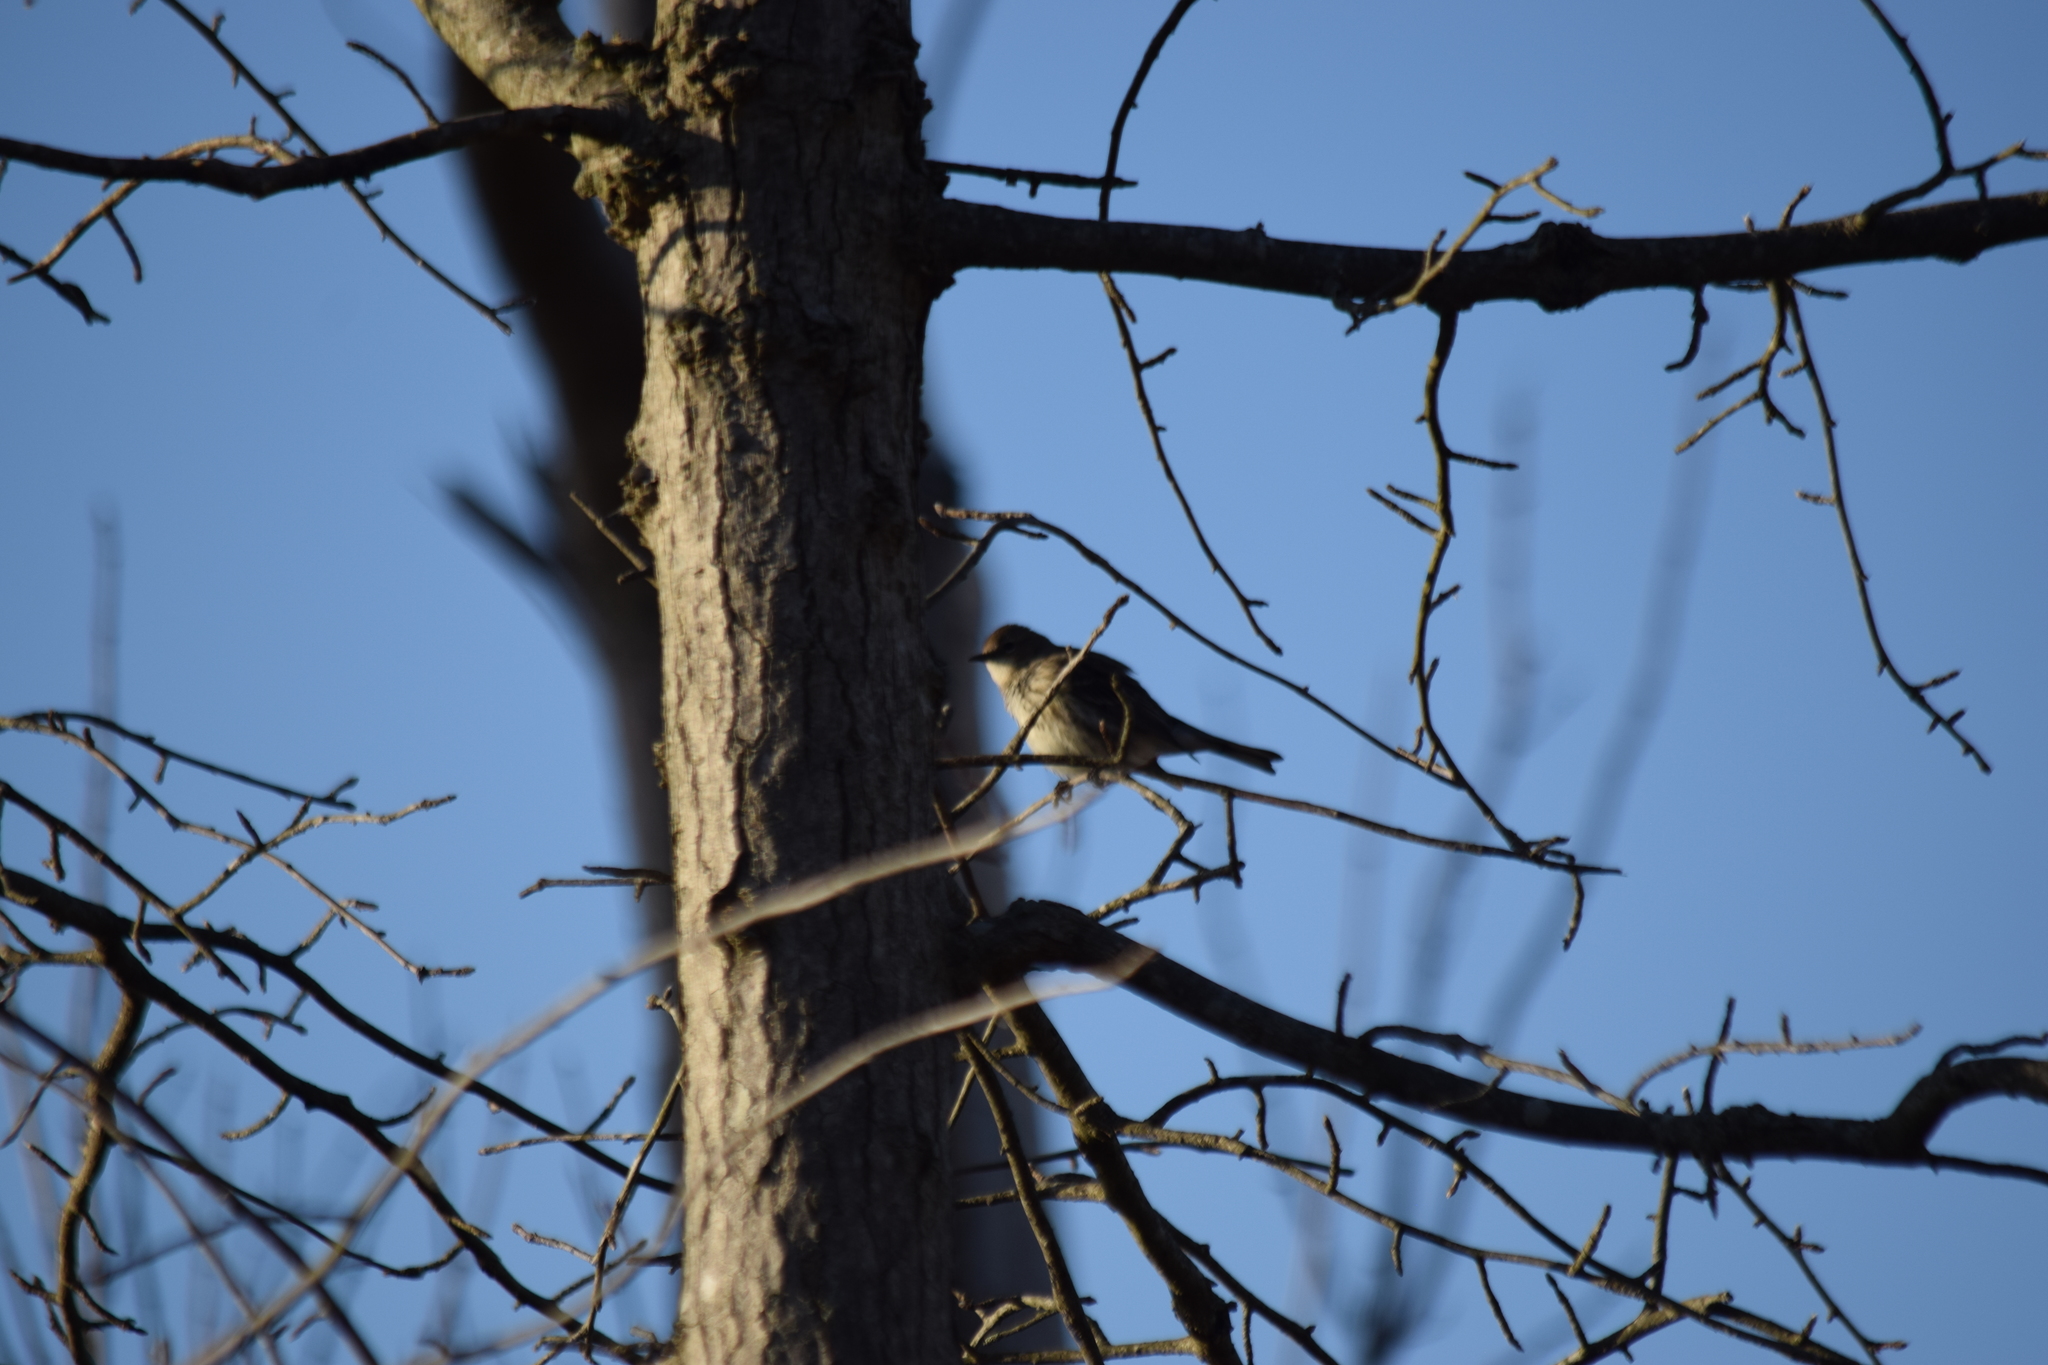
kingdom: Animalia
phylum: Chordata
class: Aves
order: Passeriformes
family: Parulidae
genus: Setophaga
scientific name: Setophaga coronata
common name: Myrtle warbler
